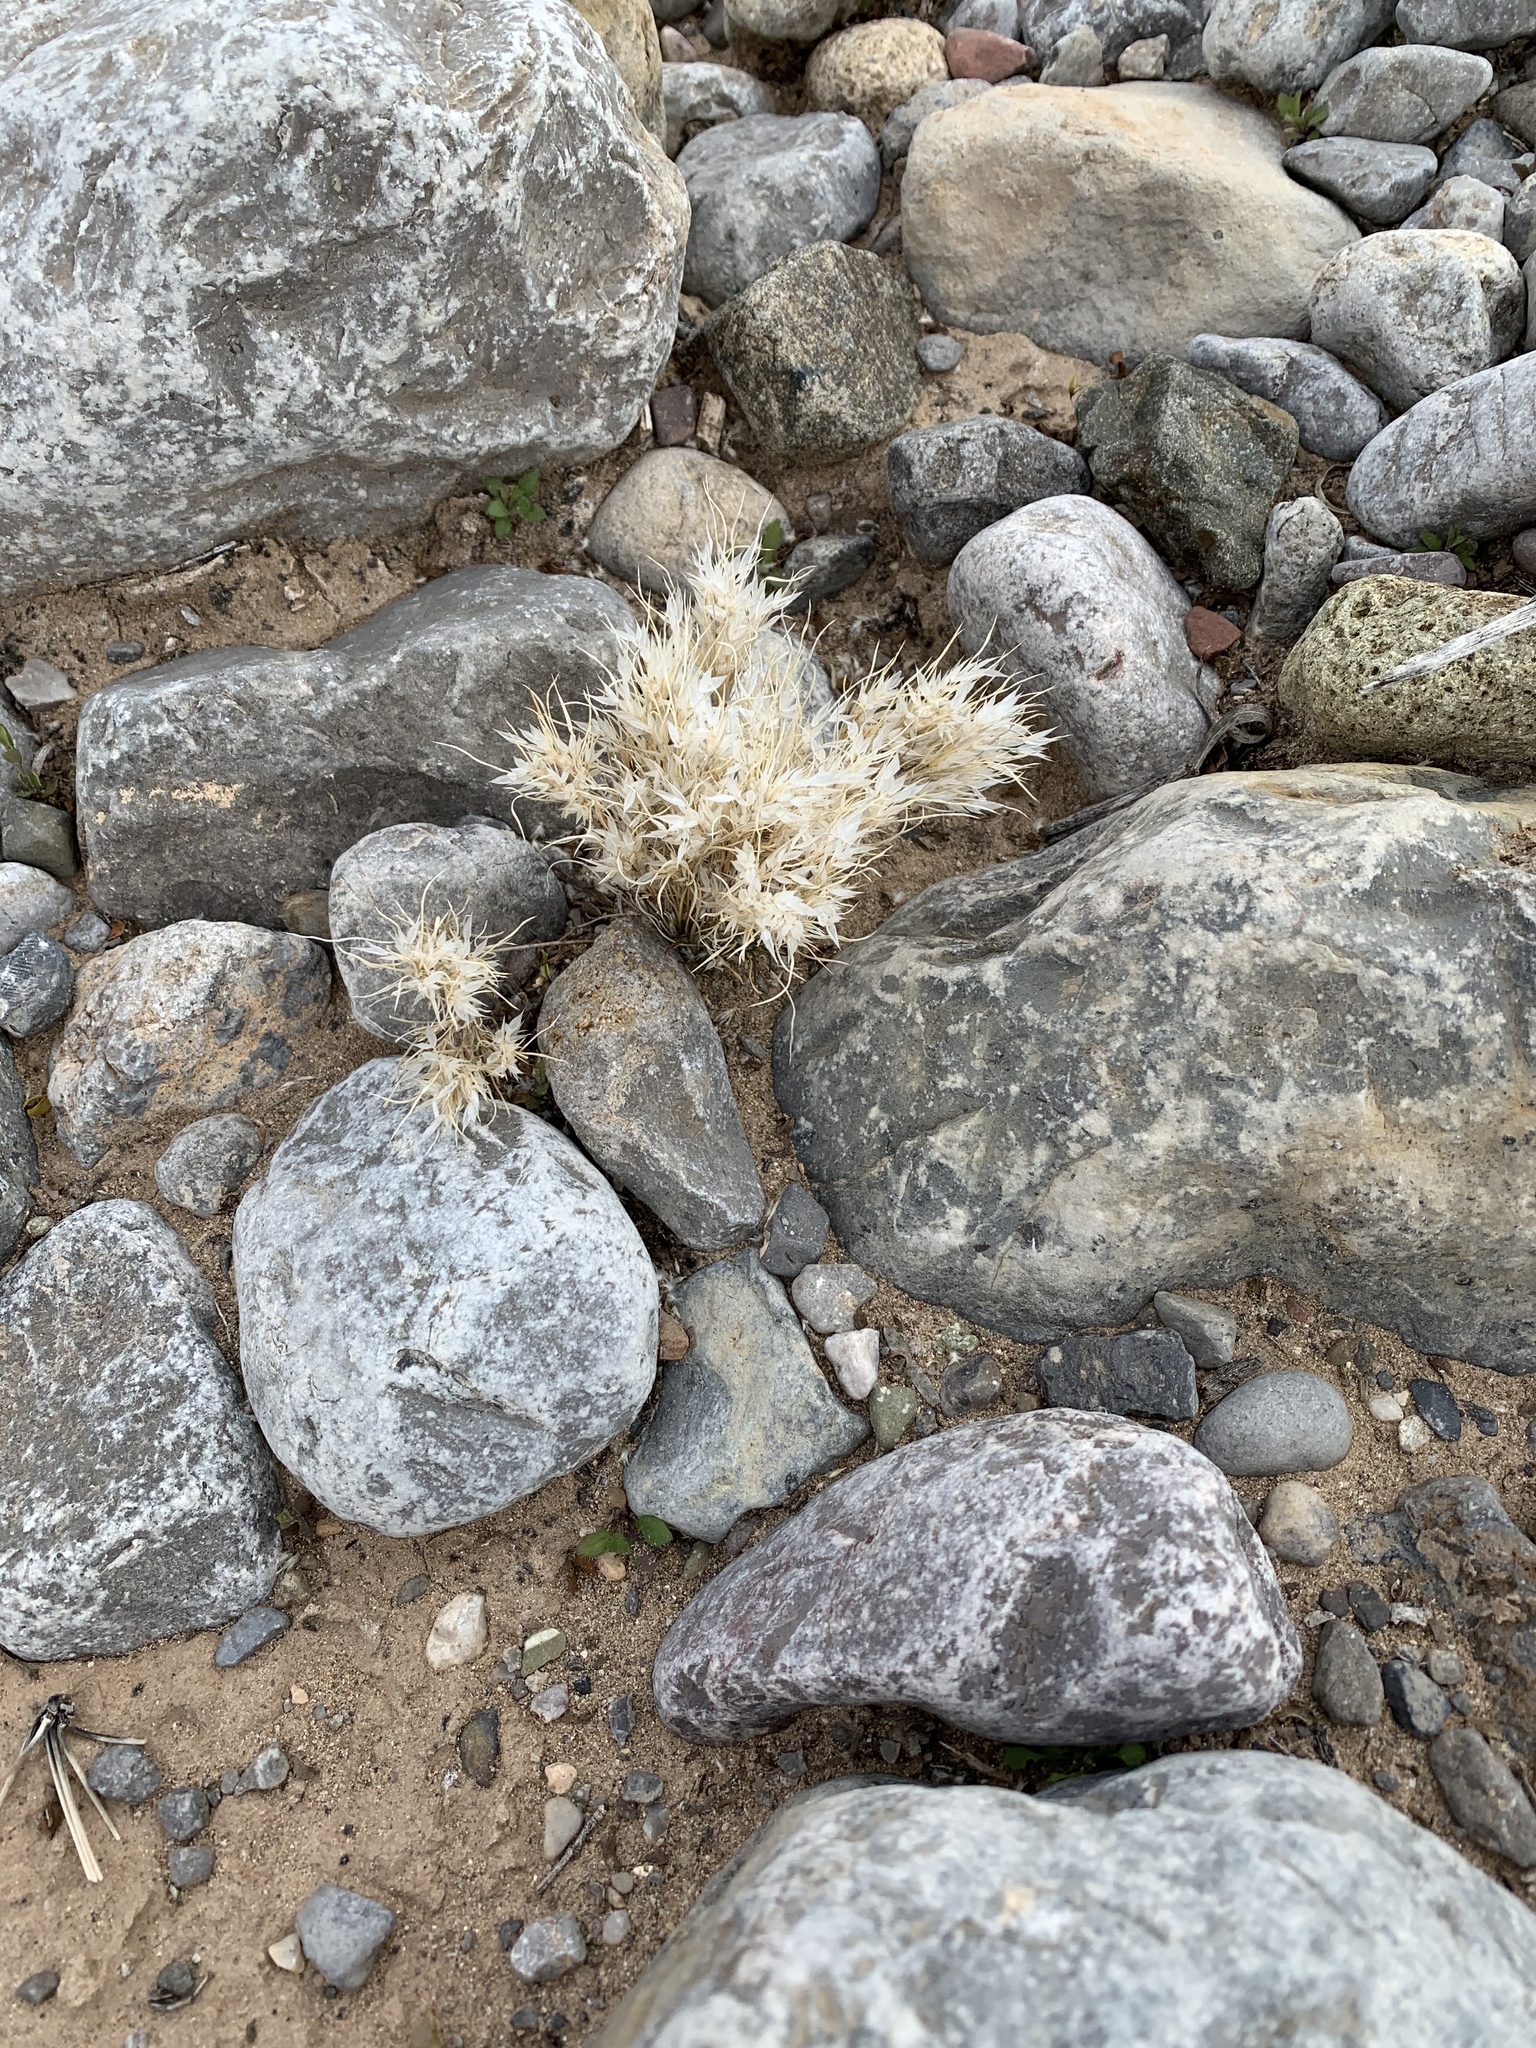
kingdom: Plantae
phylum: Tracheophyta
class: Liliopsida
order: Poales
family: Poaceae
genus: Dasyochloa
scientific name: Dasyochloa pulchella
